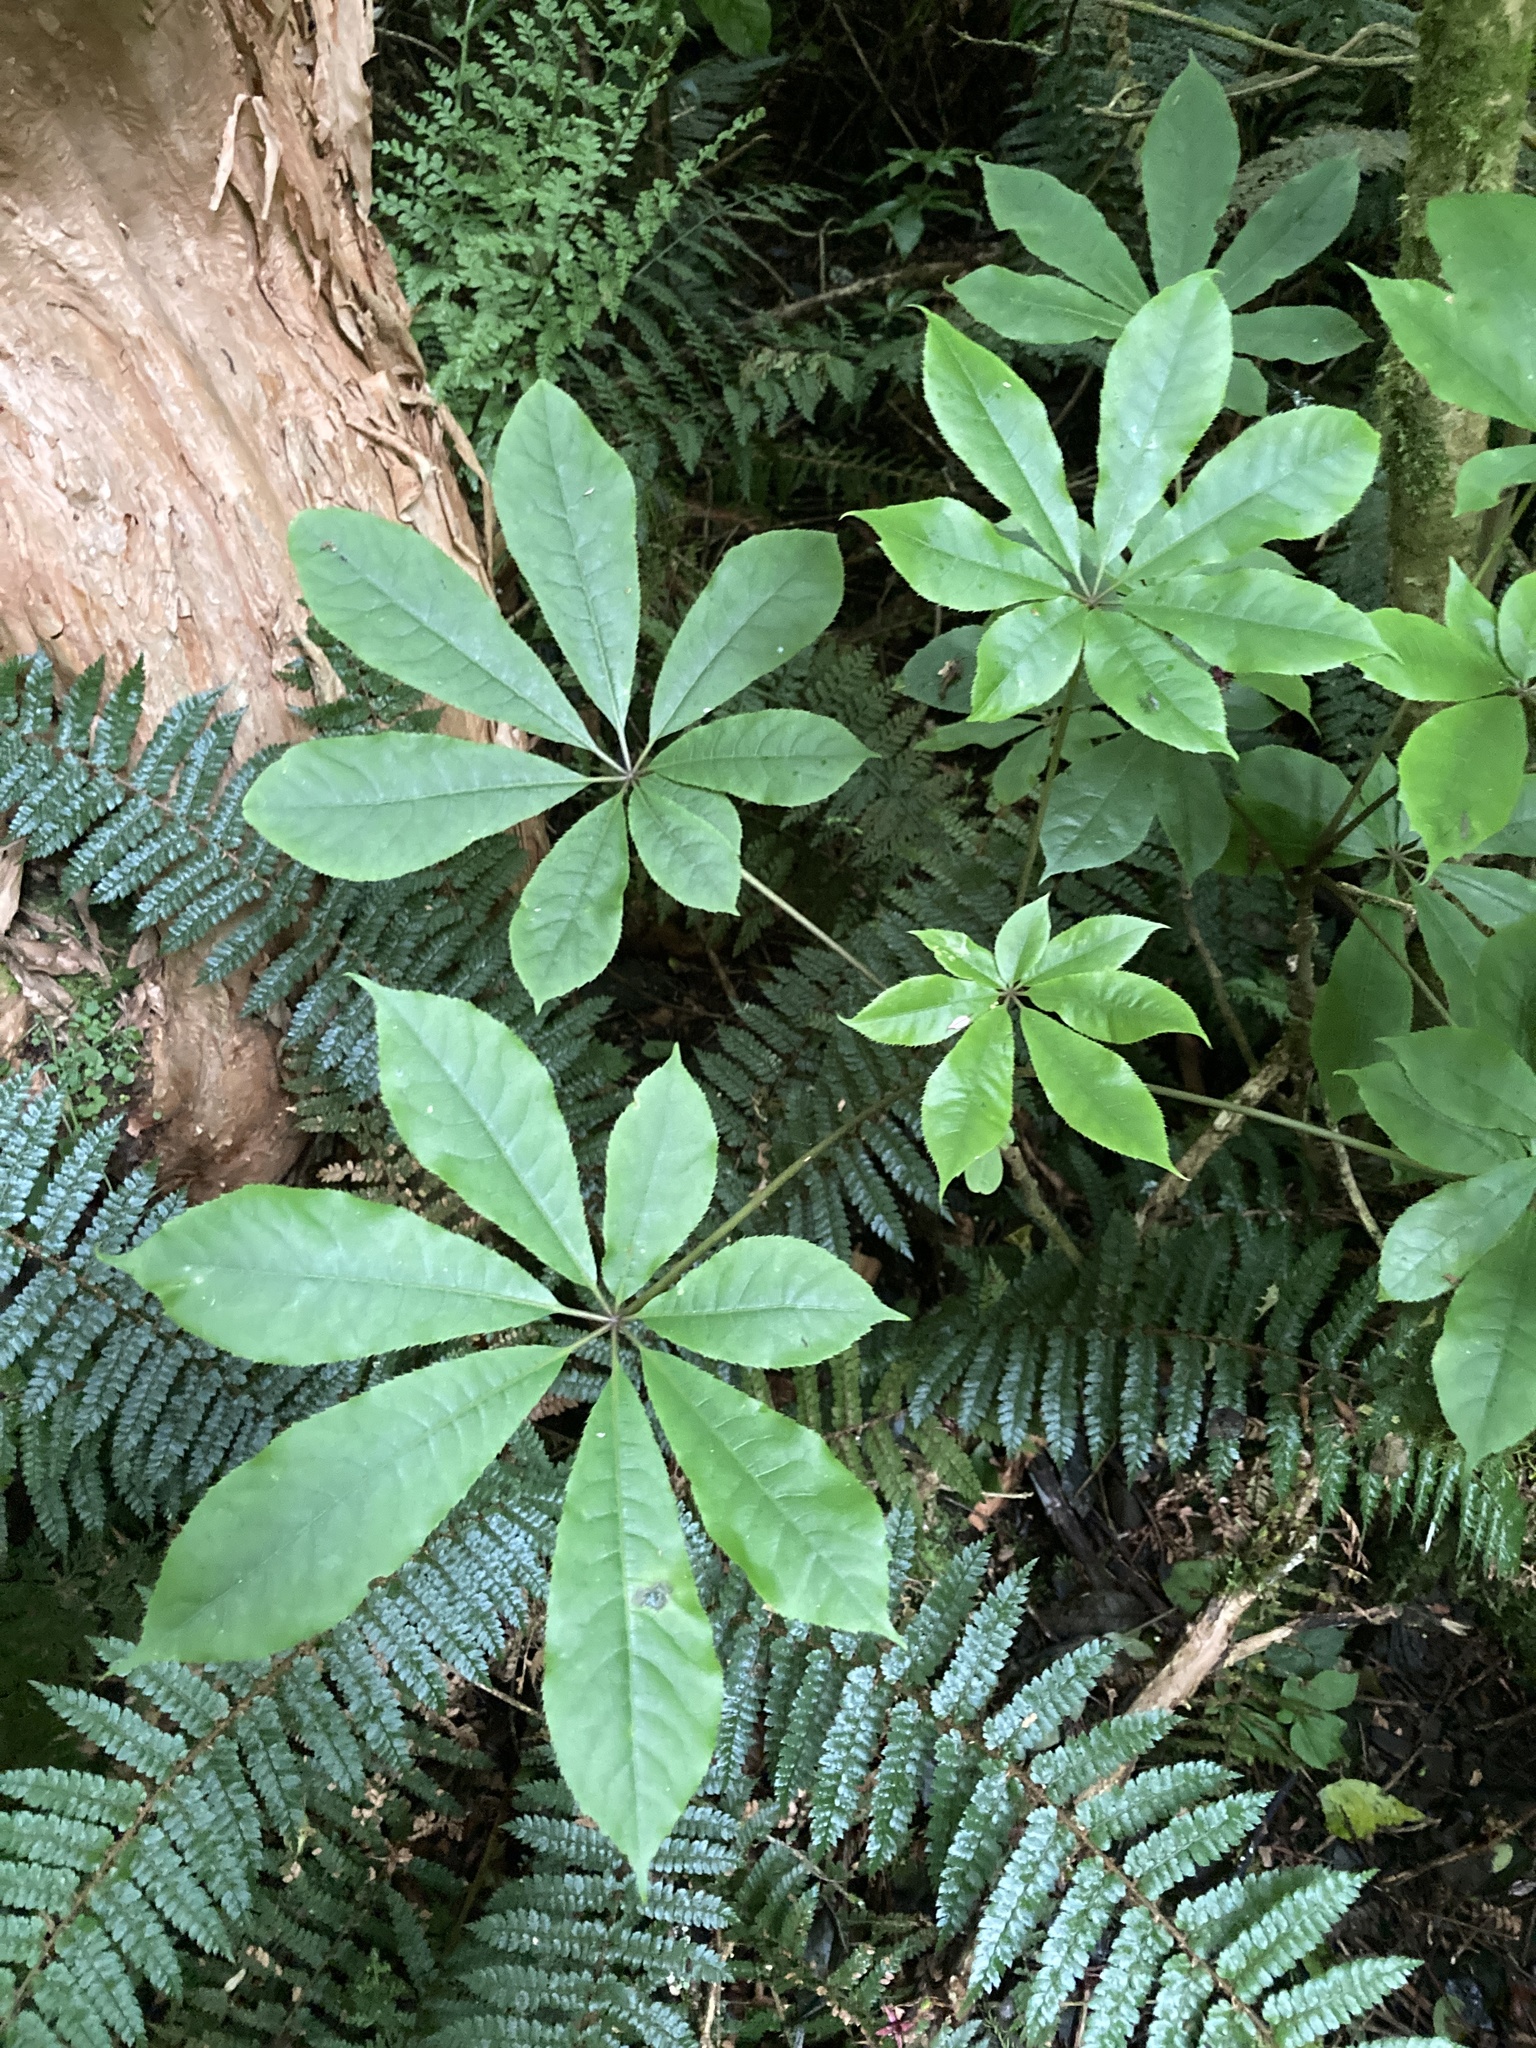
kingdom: Plantae
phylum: Tracheophyta
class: Magnoliopsida
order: Apiales
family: Araliaceae
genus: Schefflera
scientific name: Schefflera digitata
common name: Pate
